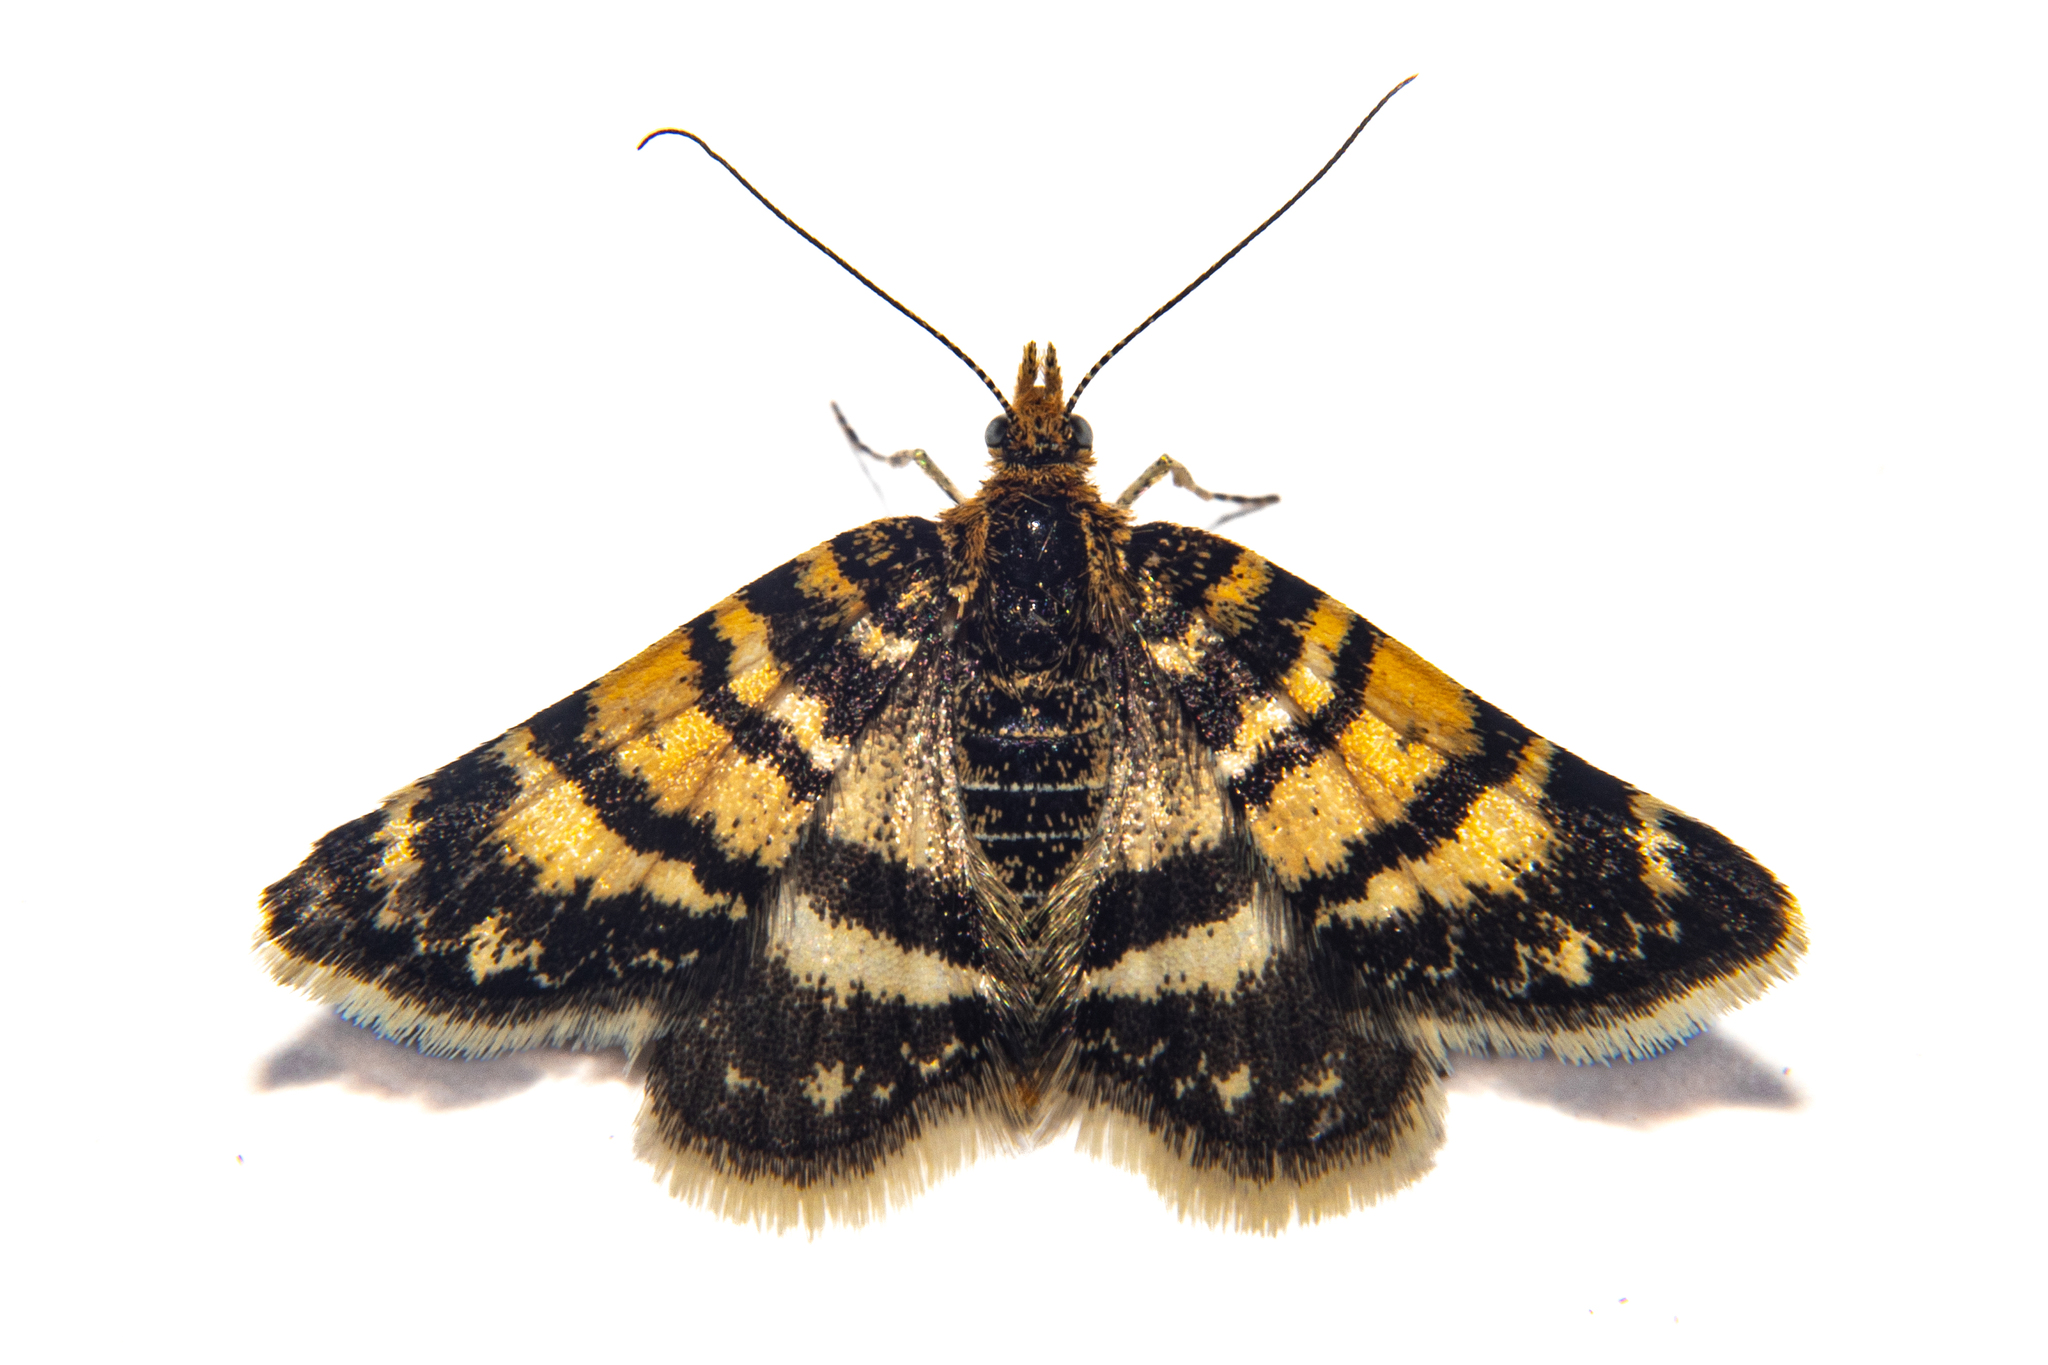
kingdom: Animalia
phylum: Arthropoda
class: Insecta
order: Lepidoptera
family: Geometridae
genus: Notoreas
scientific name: Notoreas ortholeuca
